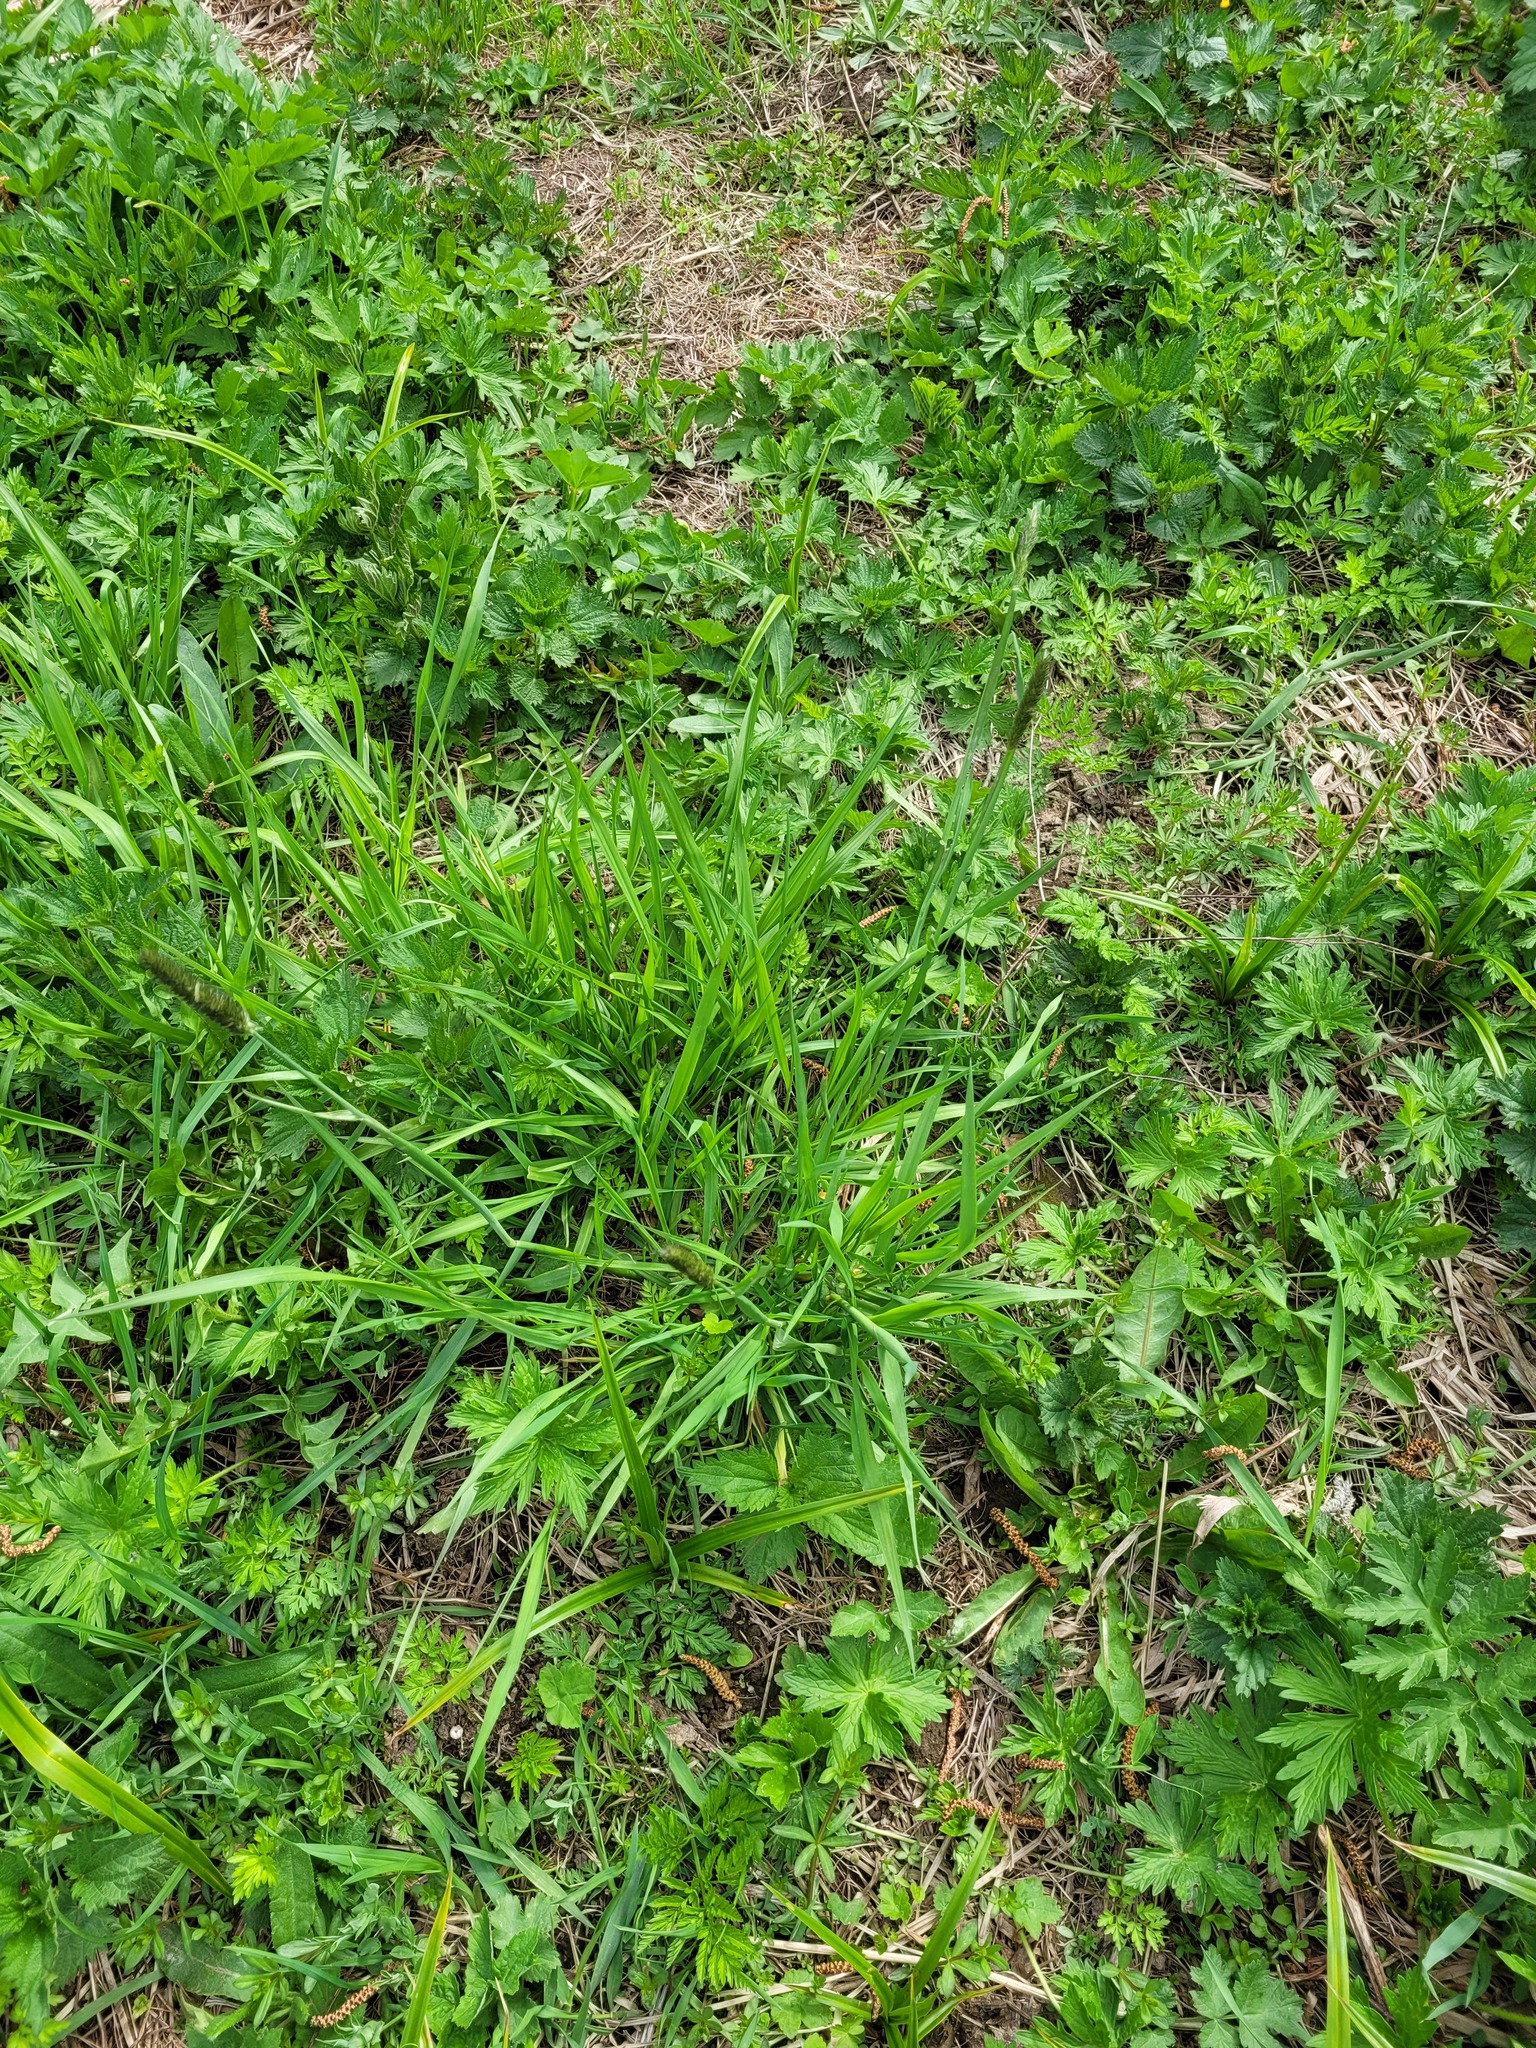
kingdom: Plantae
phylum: Tracheophyta
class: Liliopsida
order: Poales
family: Poaceae
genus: Alopecurus
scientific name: Alopecurus pratensis
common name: Meadow foxtail
